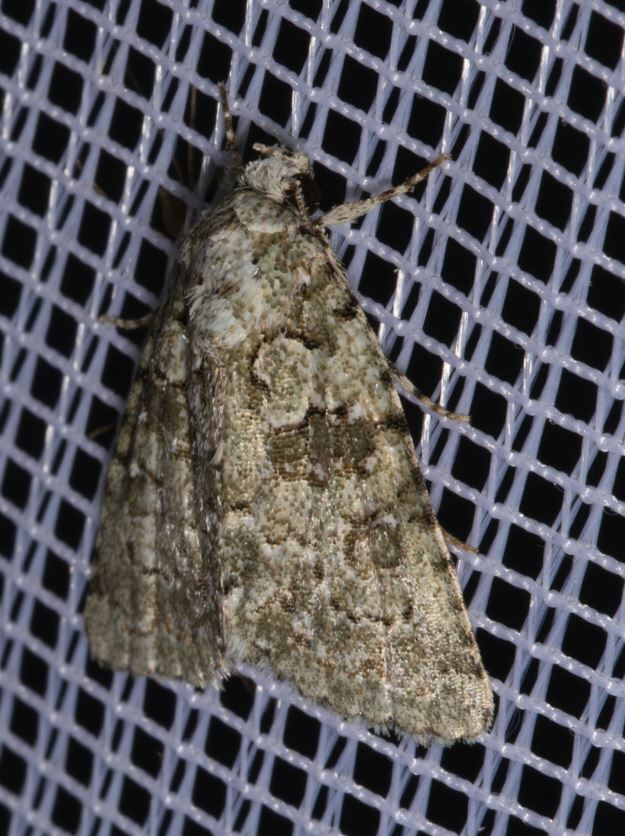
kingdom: Animalia
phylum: Arthropoda
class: Insecta
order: Lepidoptera
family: Noctuidae
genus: Nyctobrya
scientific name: Nyctobrya muralis
